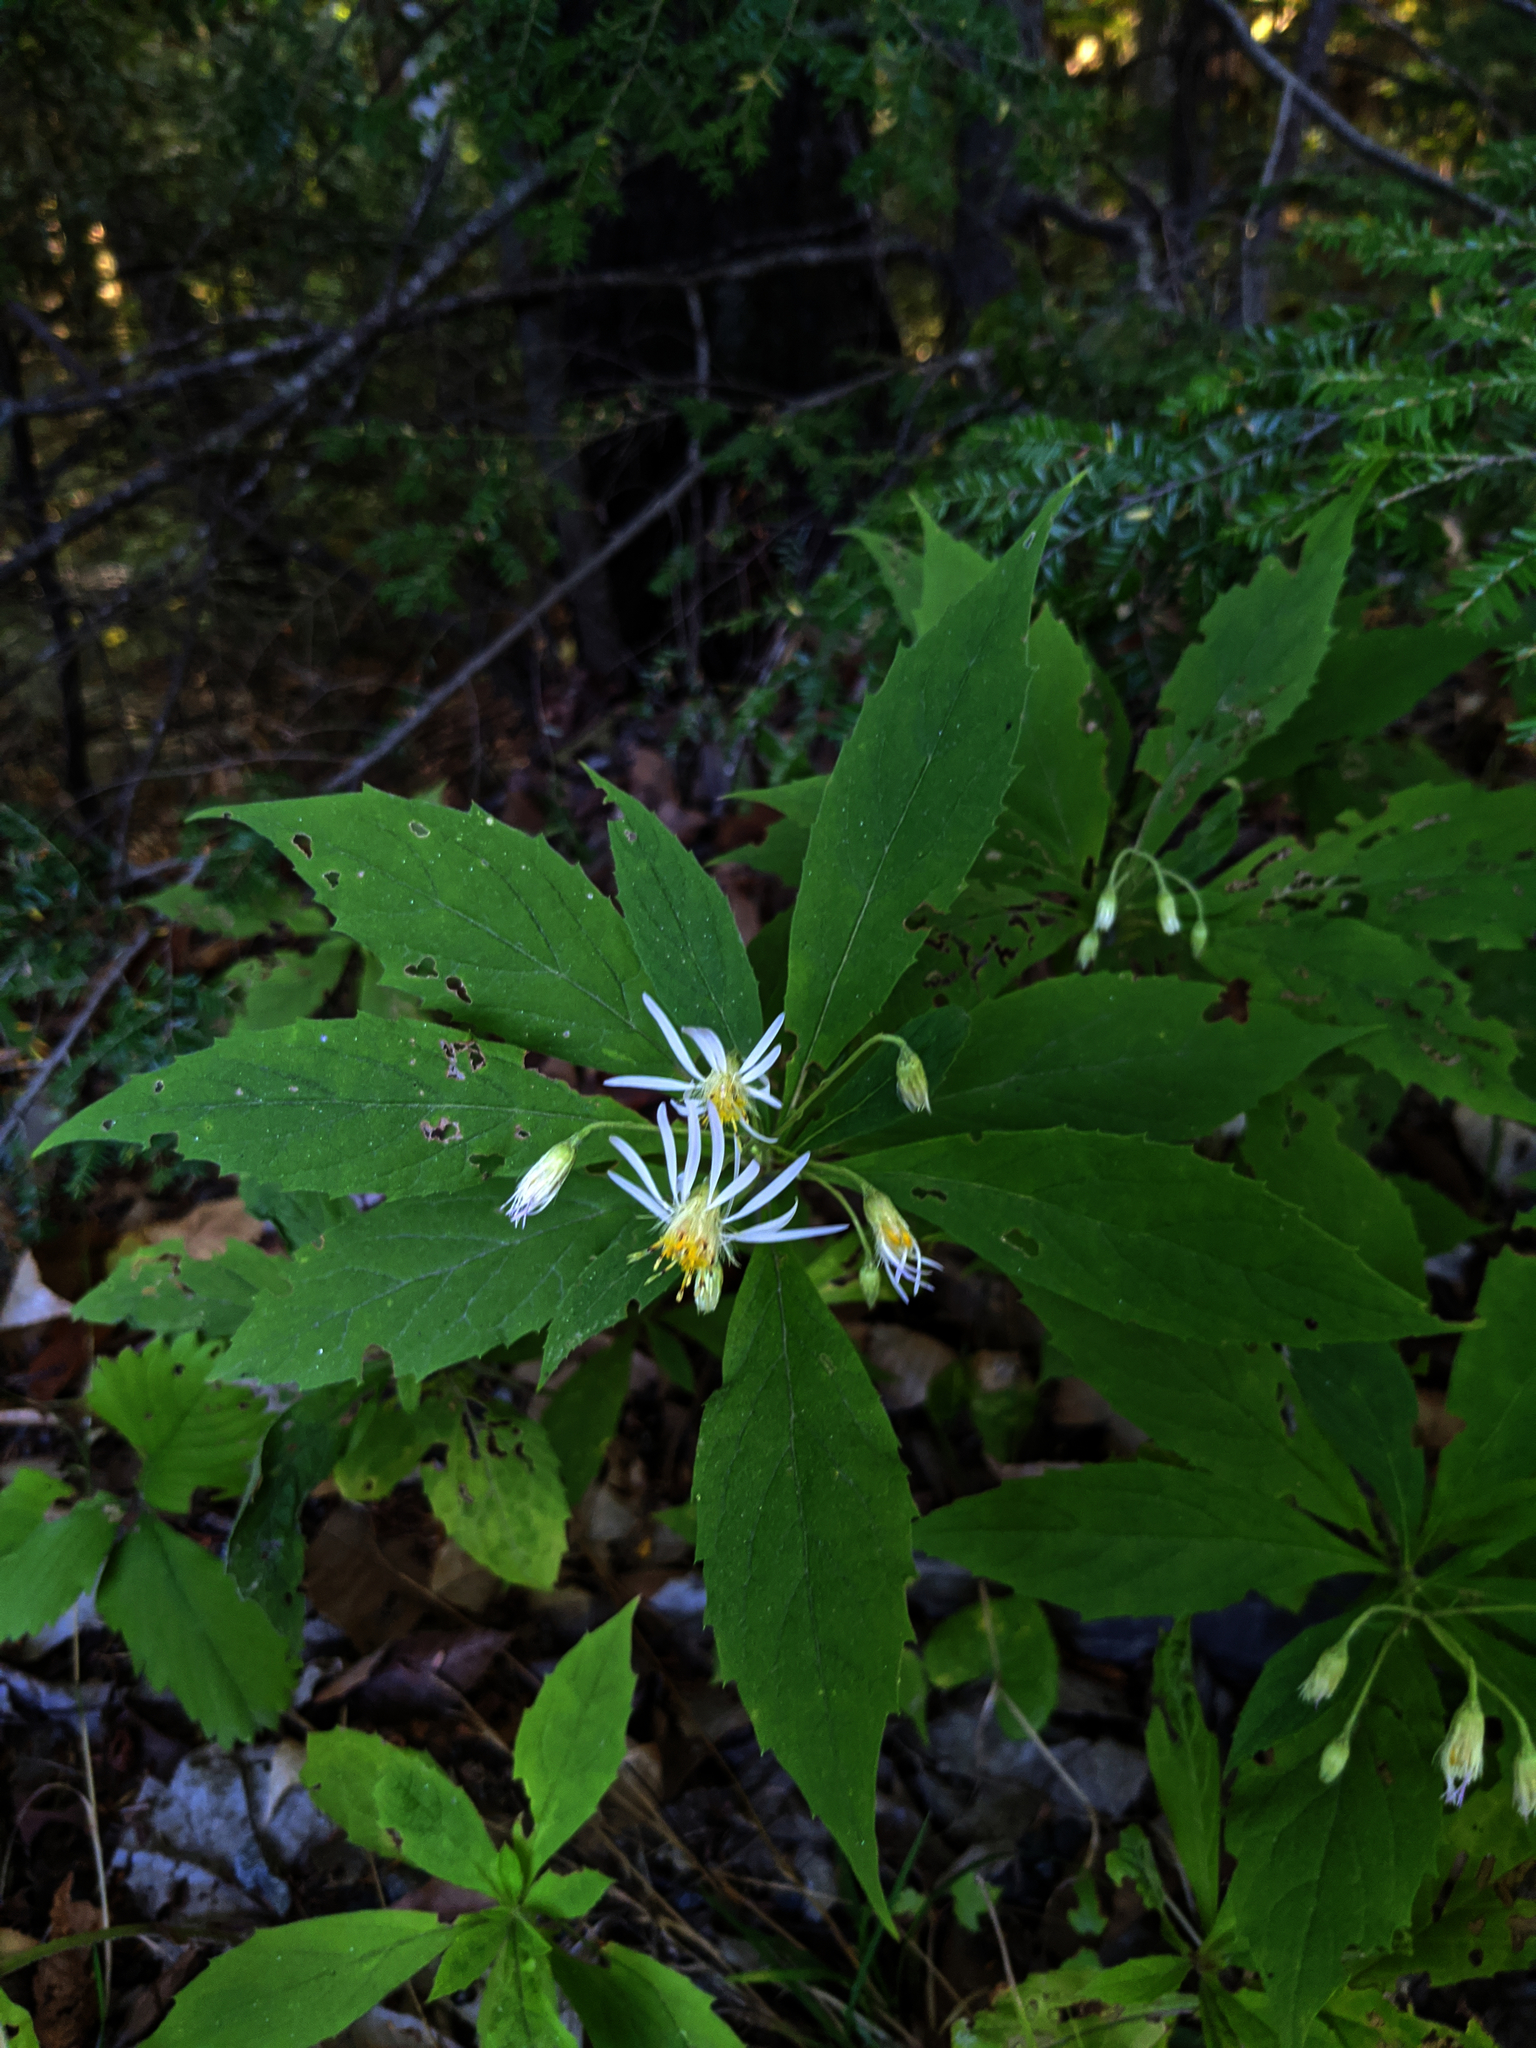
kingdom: Plantae
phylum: Tracheophyta
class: Magnoliopsida
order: Asterales
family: Asteraceae
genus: Oclemena
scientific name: Oclemena acuminata
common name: Mountain aster
